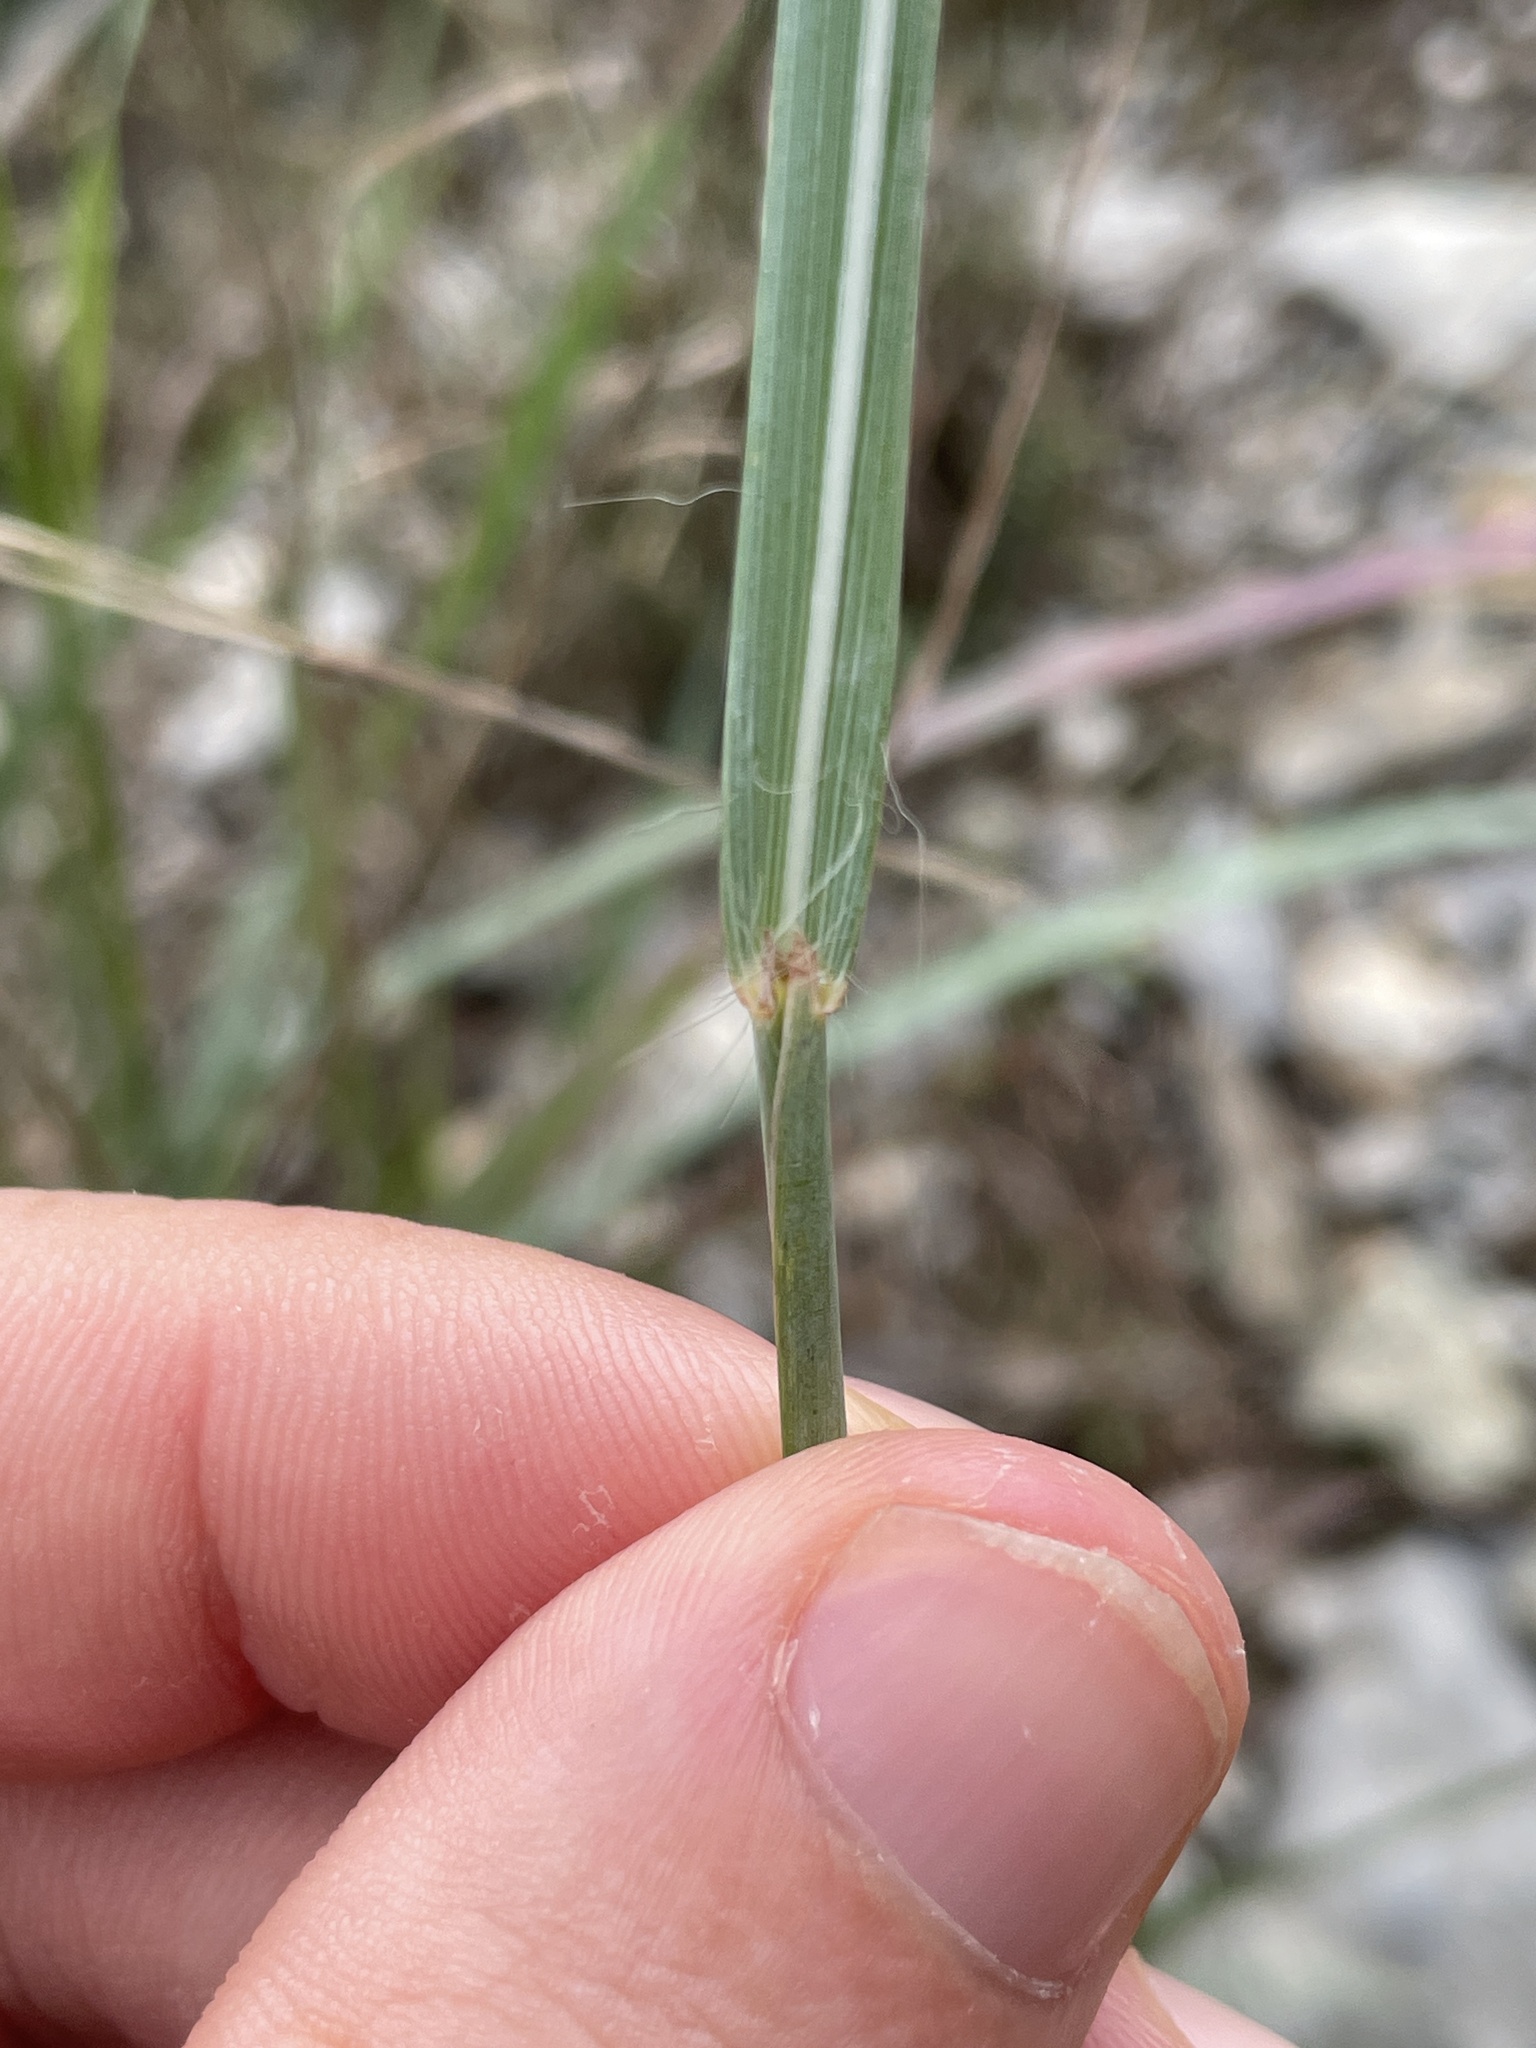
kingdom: Plantae
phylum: Tracheophyta
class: Liliopsida
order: Poales
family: Poaceae
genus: Hyparrhenia
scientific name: Hyparrhenia hirta
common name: Thatching grass
